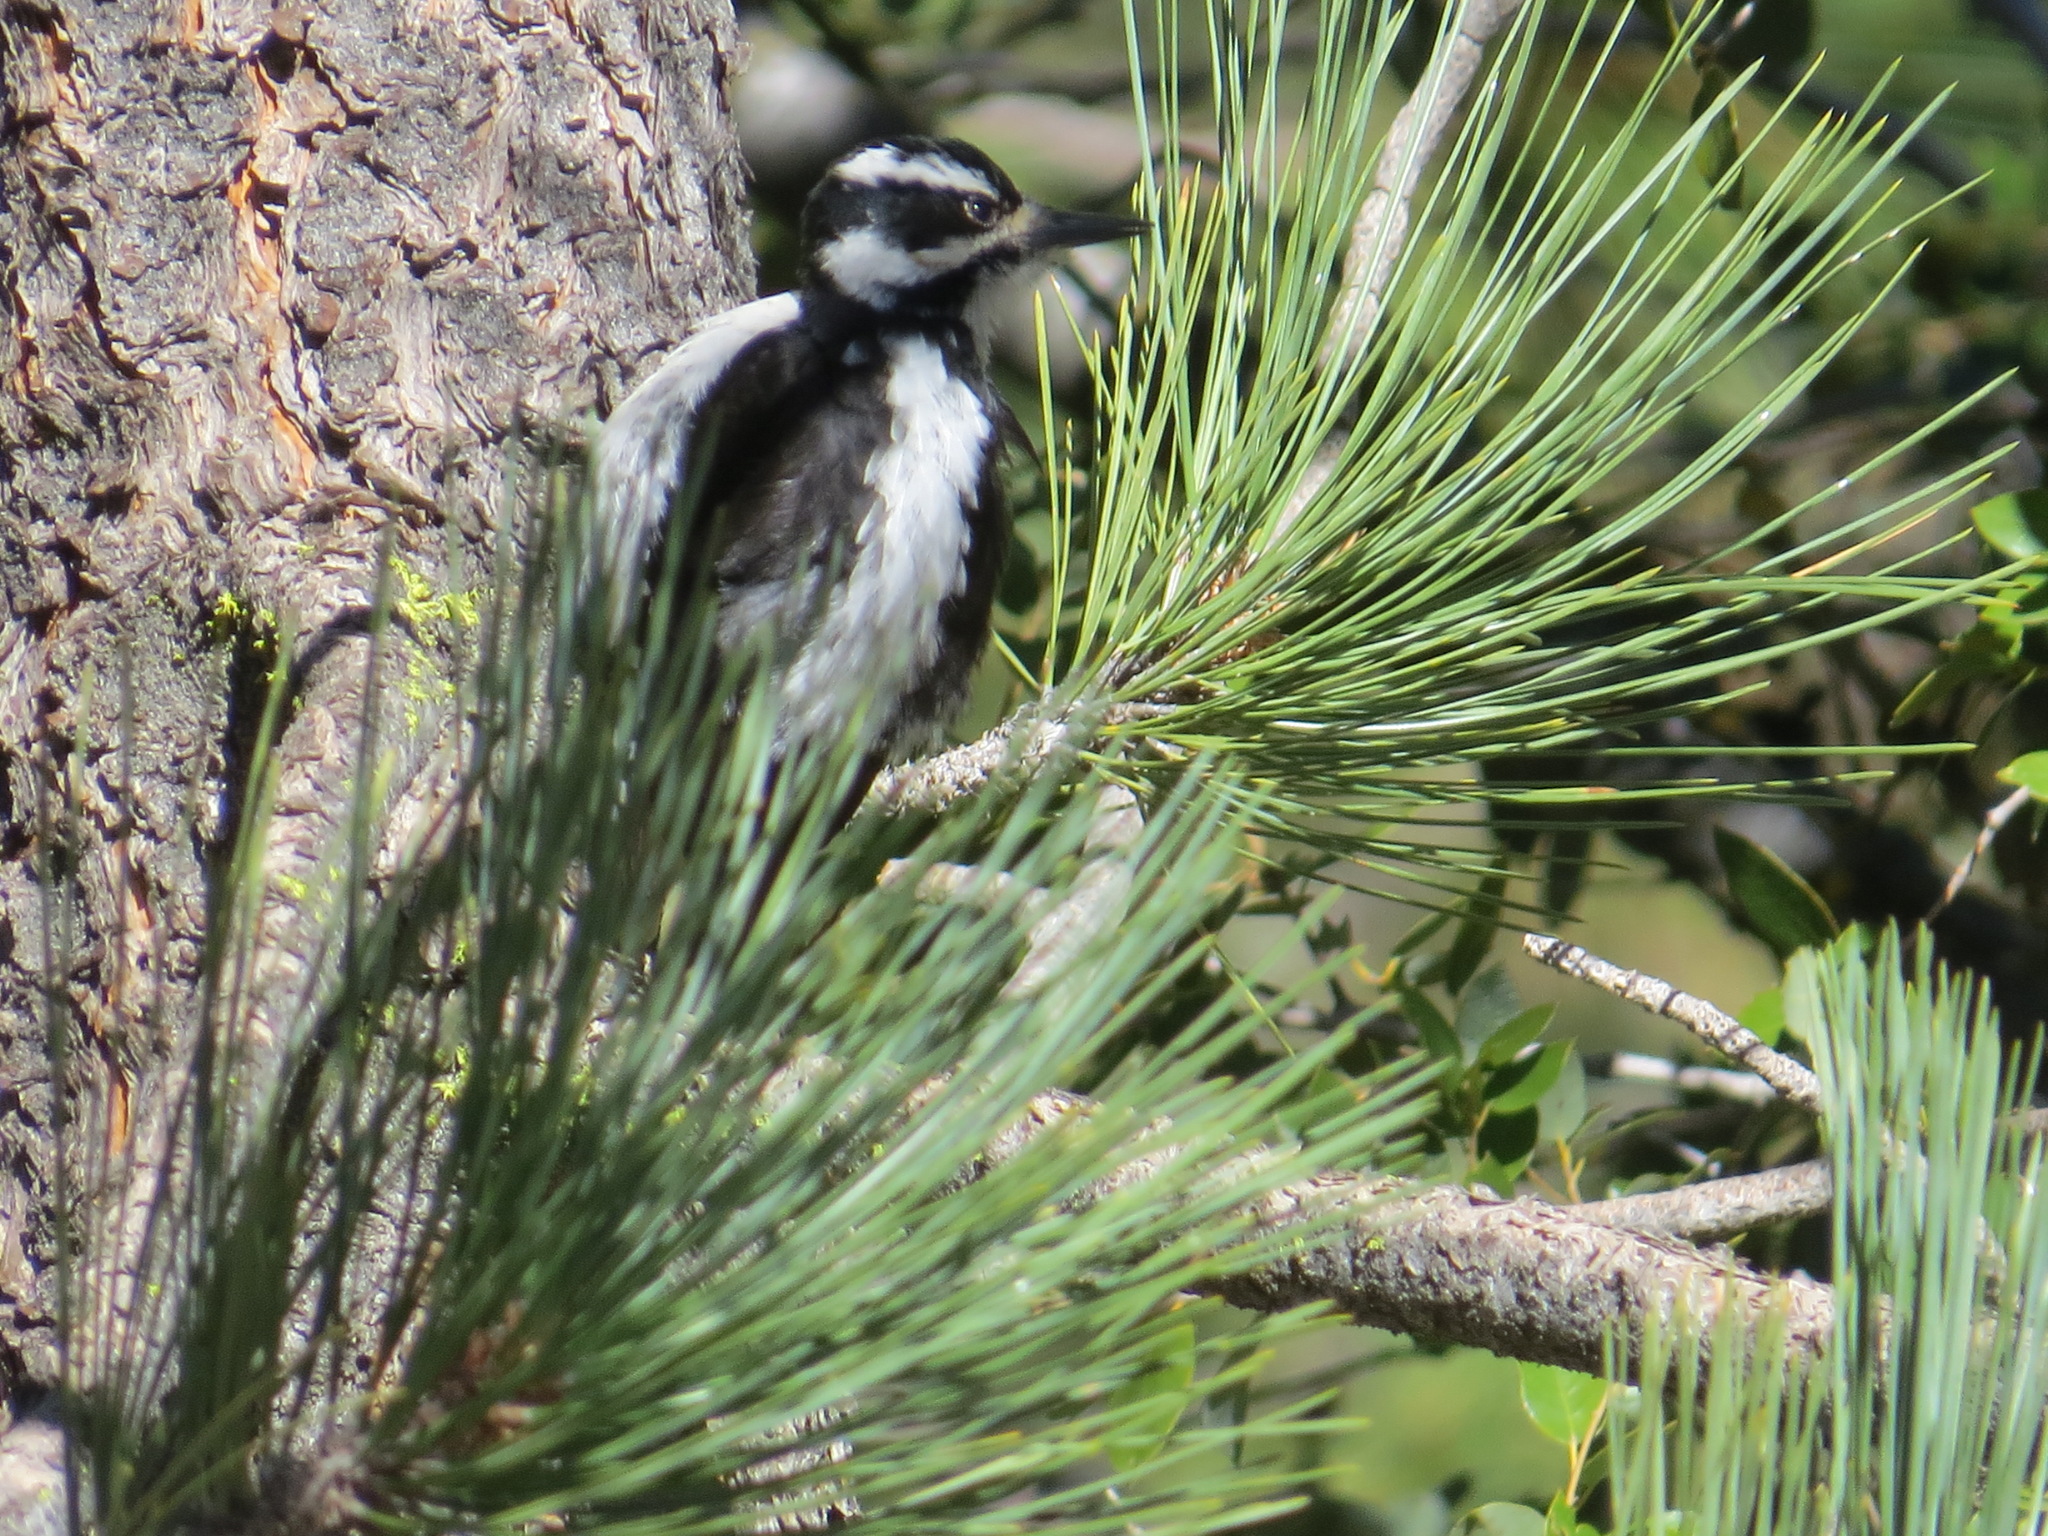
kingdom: Animalia
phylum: Chordata
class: Aves
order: Piciformes
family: Picidae
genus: Leuconotopicus
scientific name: Leuconotopicus villosus
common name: Hairy woodpecker
